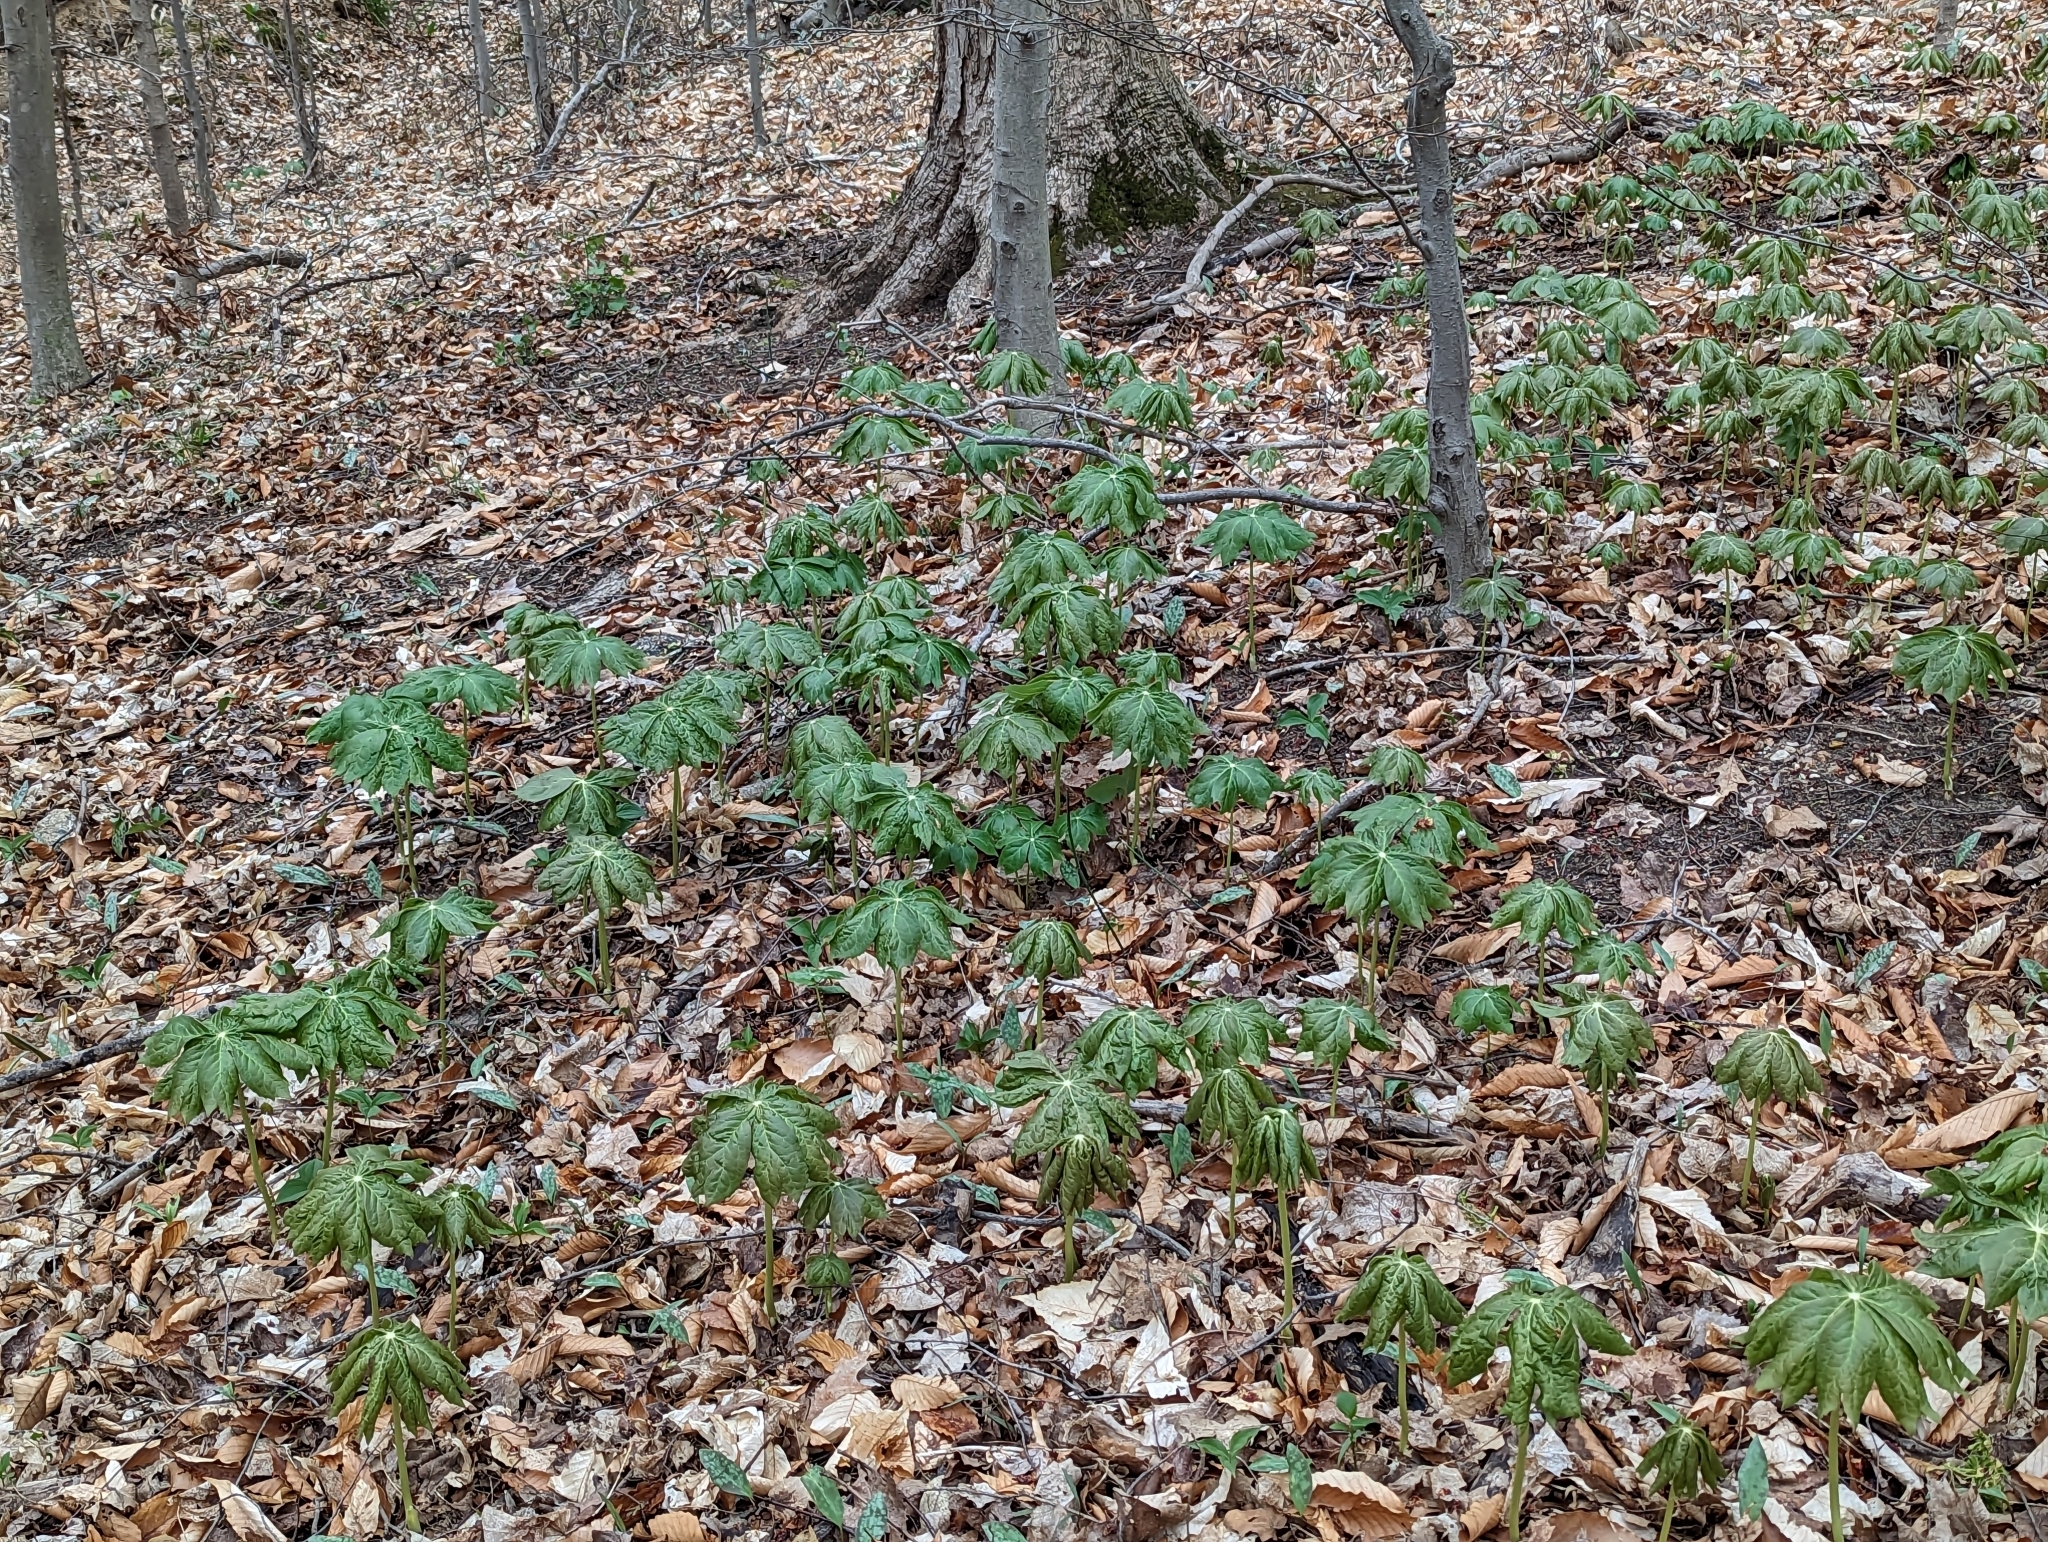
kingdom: Plantae
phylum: Tracheophyta
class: Magnoliopsida
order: Ranunculales
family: Berberidaceae
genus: Podophyllum
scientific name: Podophyllum peltatum
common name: Wild mandrake
